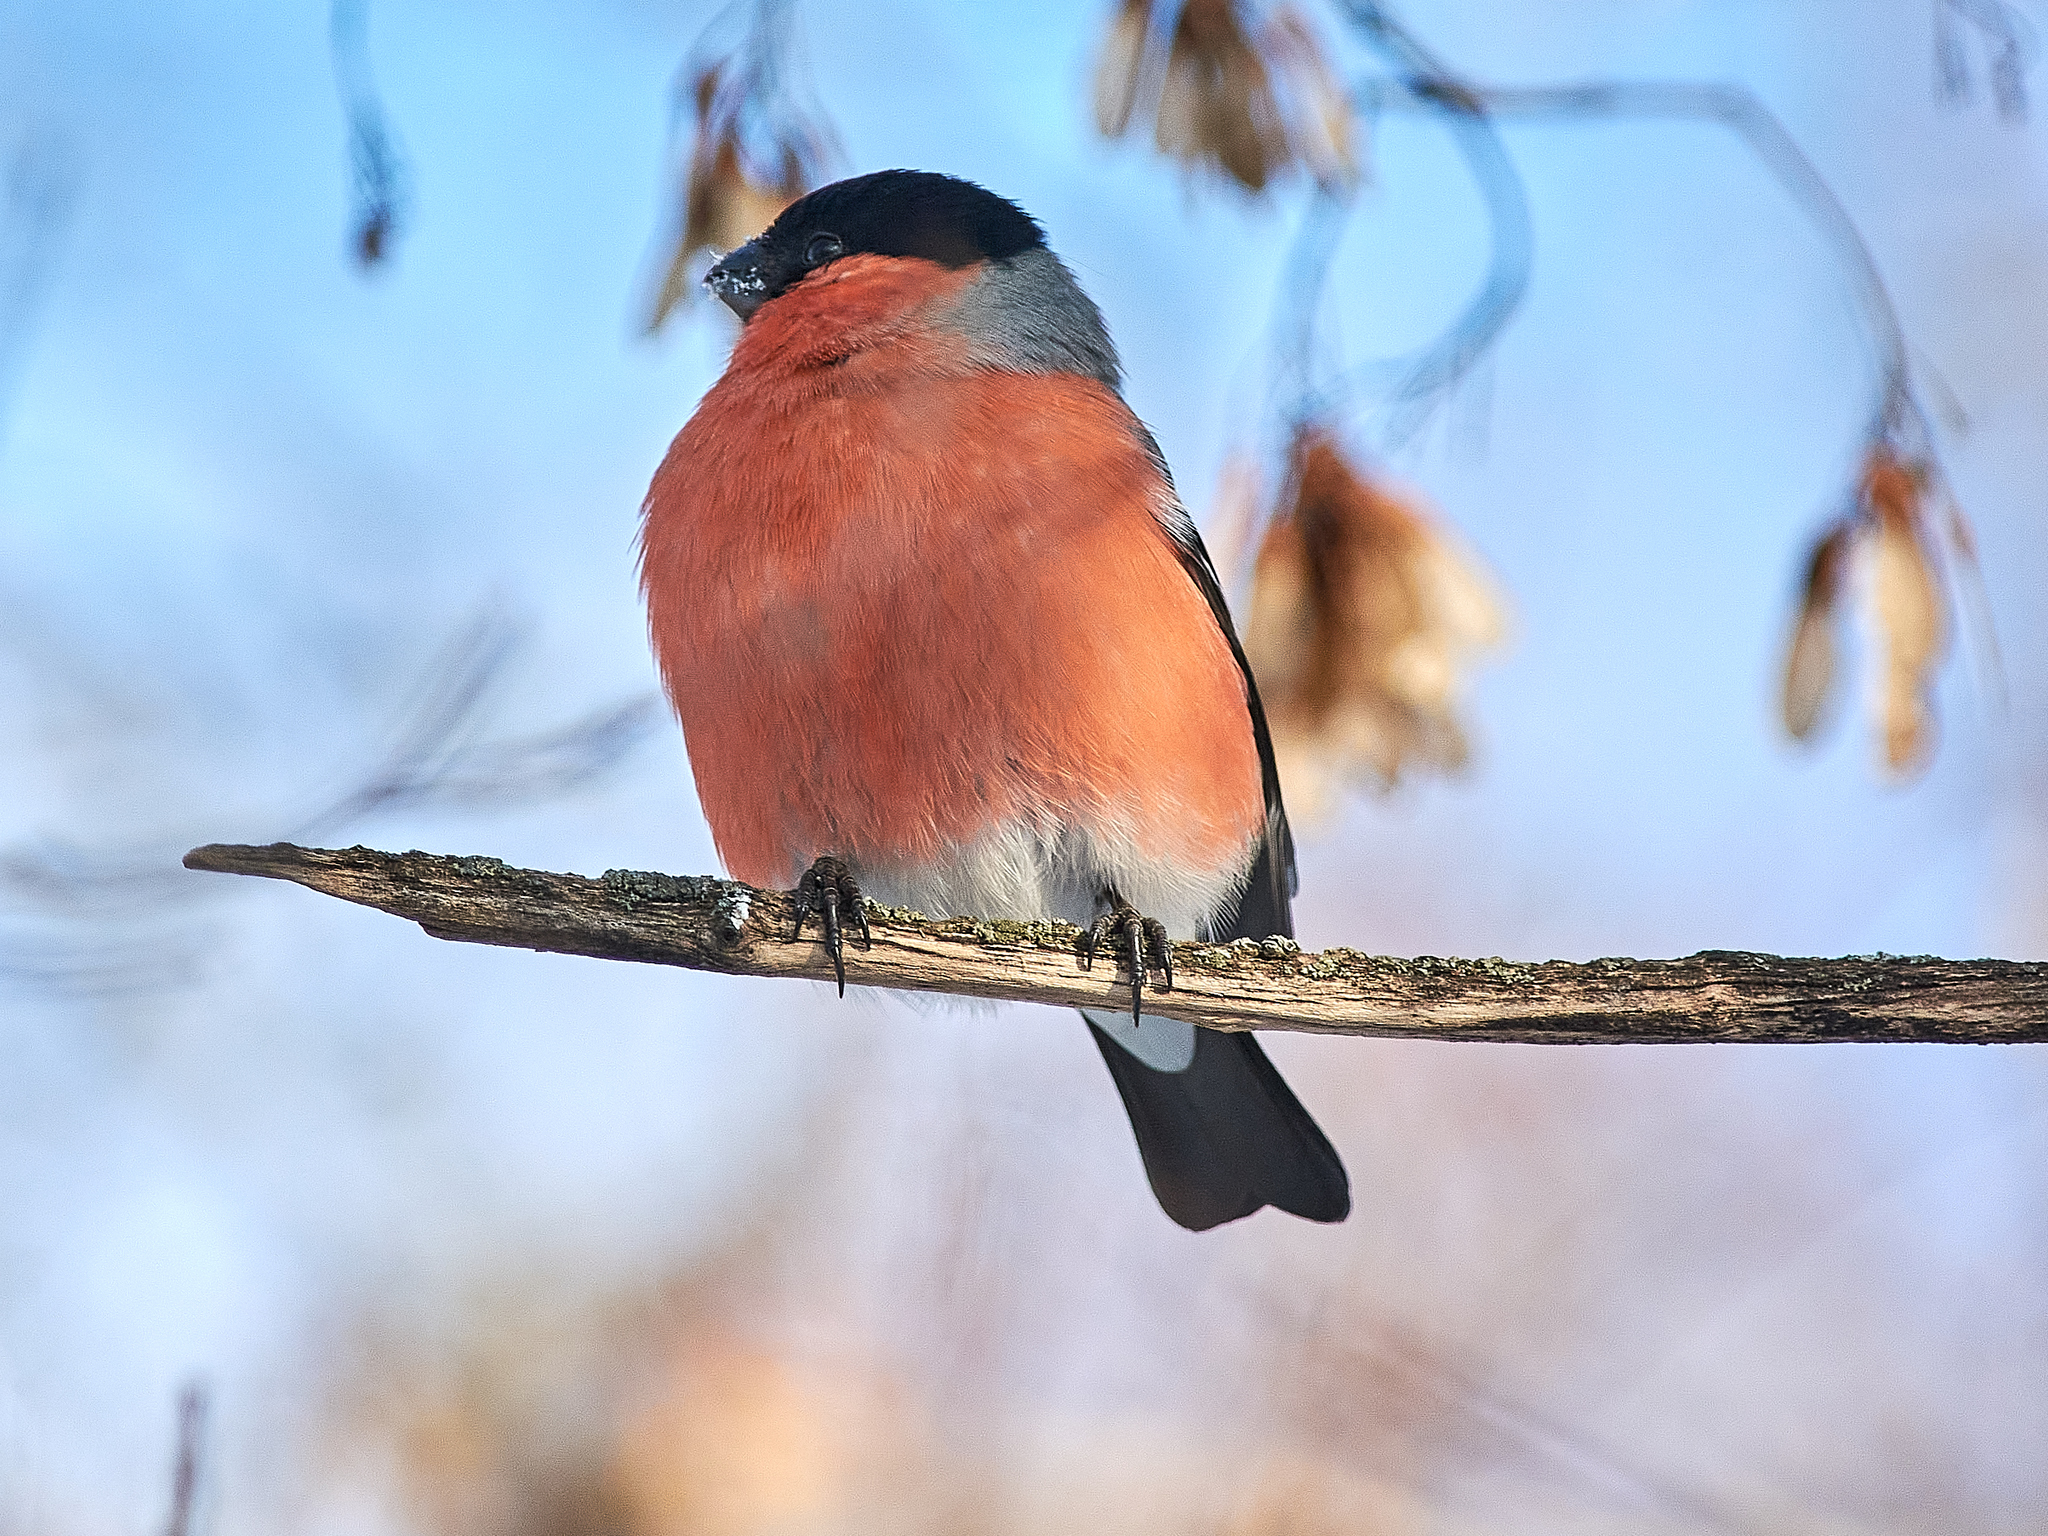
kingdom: Animalia
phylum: Chordata
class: Aves
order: Passeriformes
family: Fringillidae
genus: Pyrrhula
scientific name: Pyrrhula pyrrhula
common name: Eurasian bullfinch
